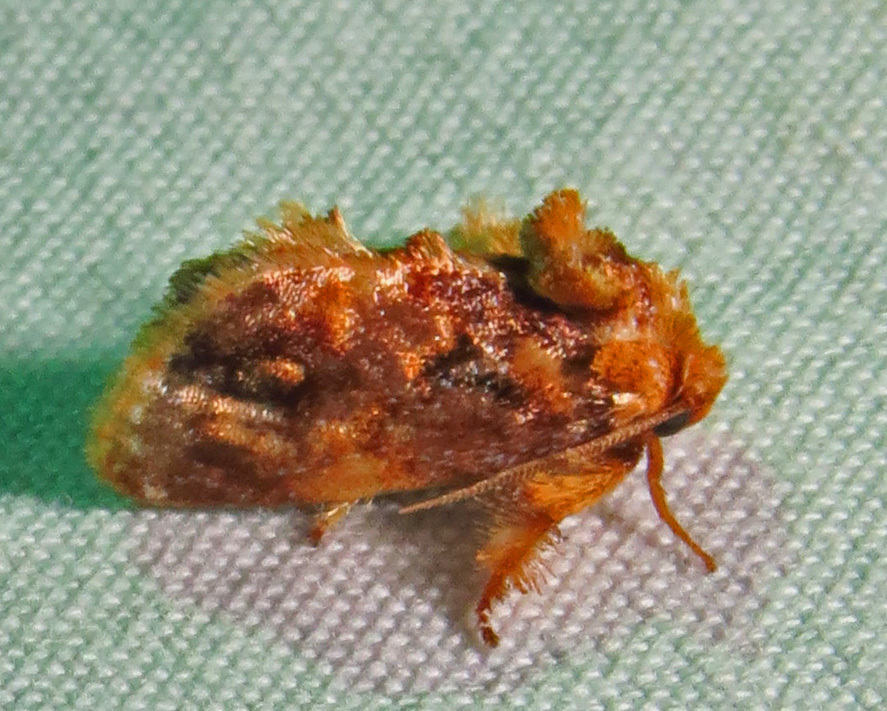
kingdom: Animalia
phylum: Arthropoda
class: Insecta
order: Lepidoptera
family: Limacodidae
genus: Isochaetes
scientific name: Isochaetes beutenmuelleri
